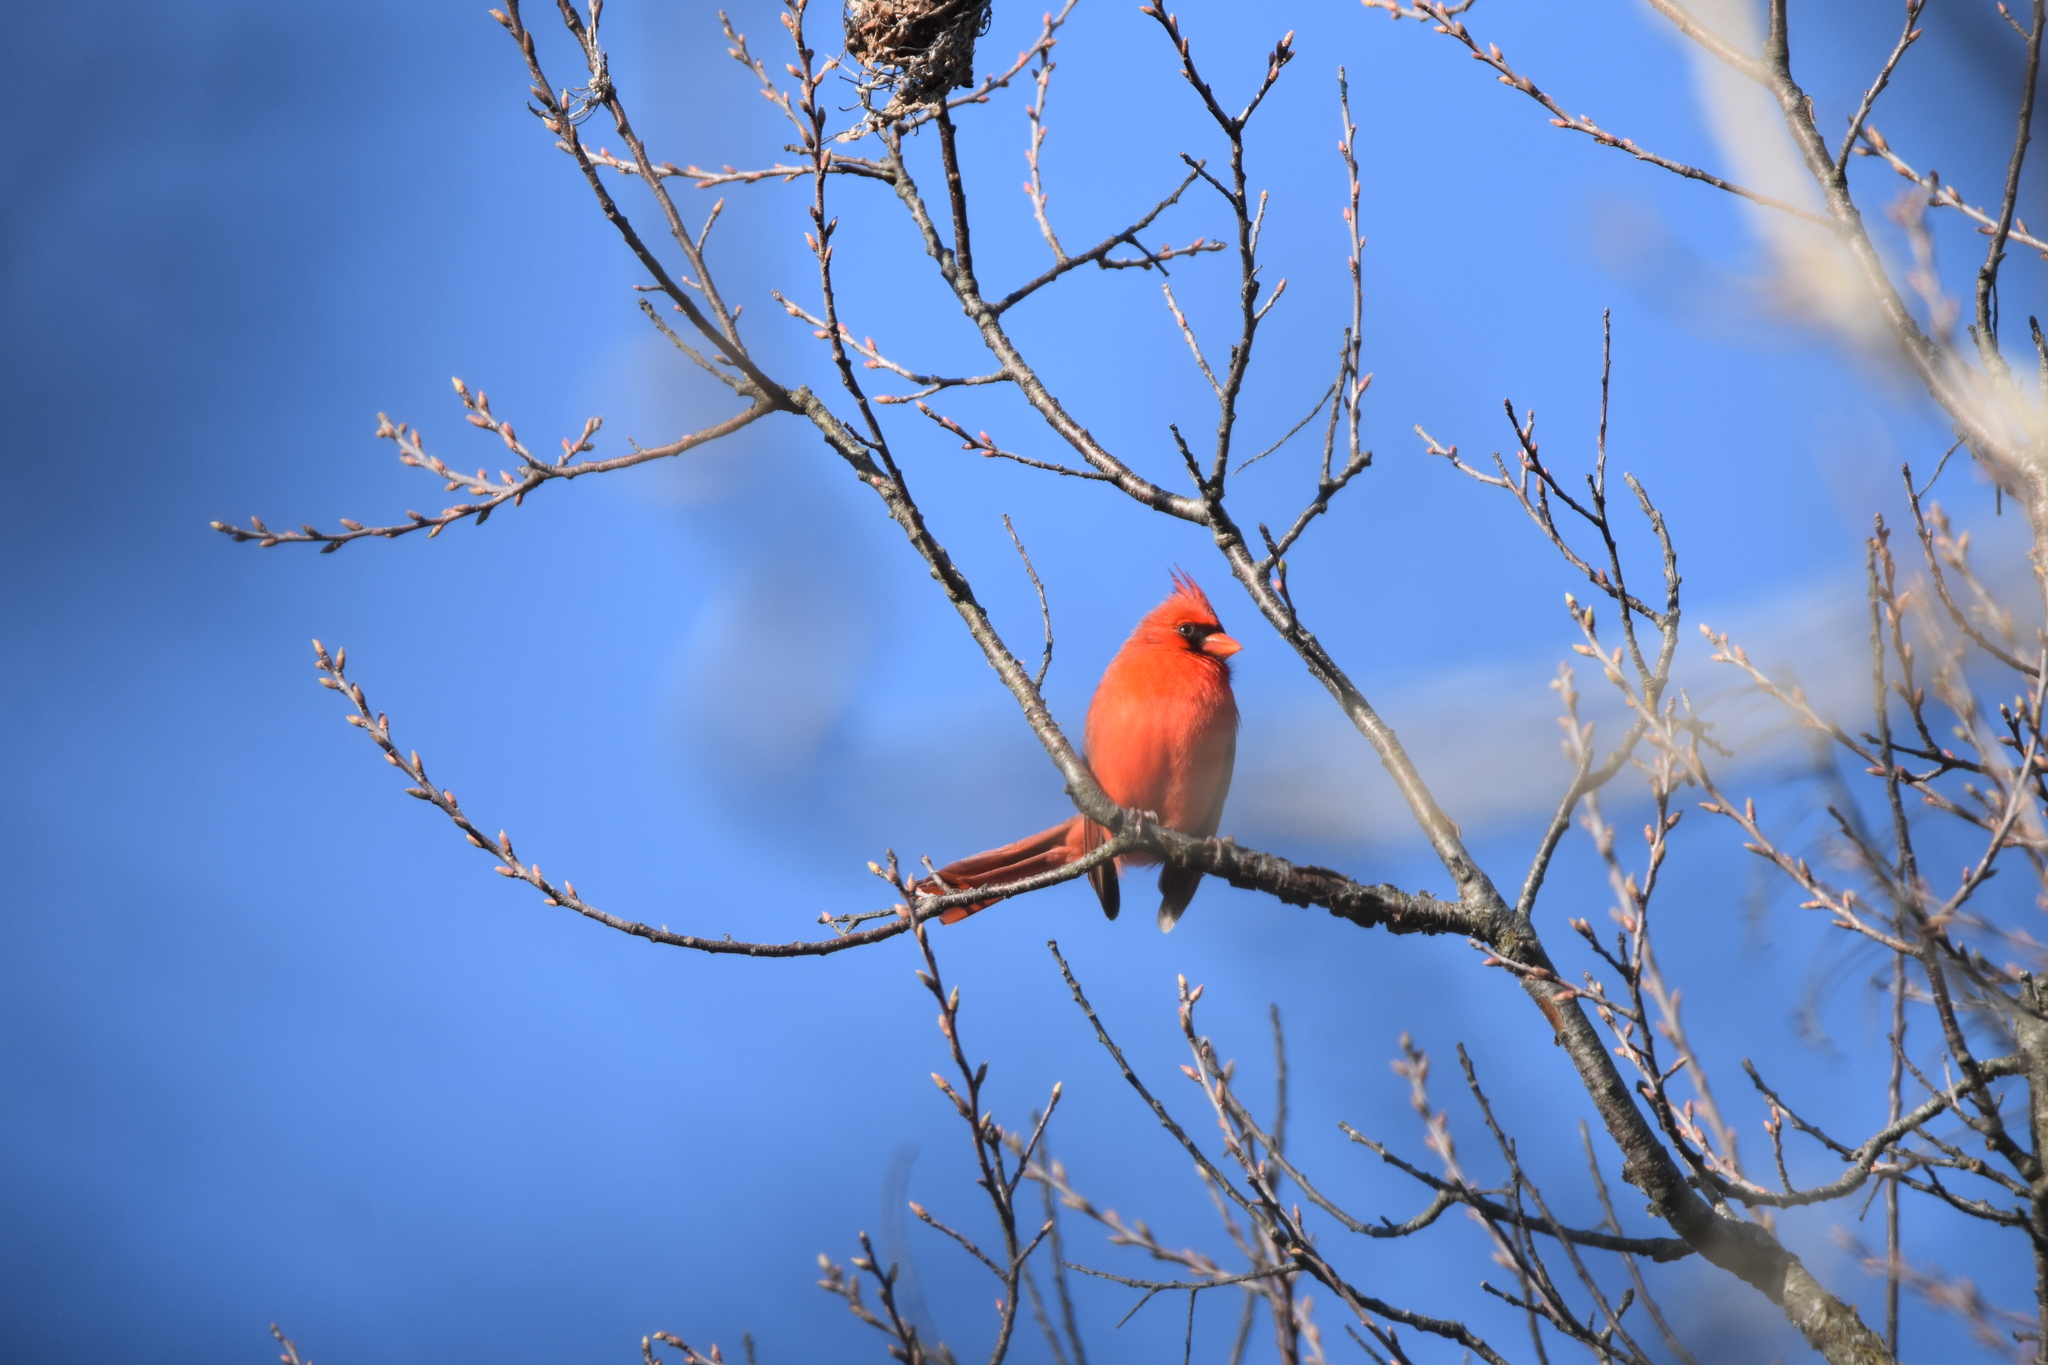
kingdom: Animalia
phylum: Chordata
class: Aves
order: Passeriformes
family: Cardinalidae
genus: Cardinalis
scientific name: Cardinalis cardinalis
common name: Northern cardinal
